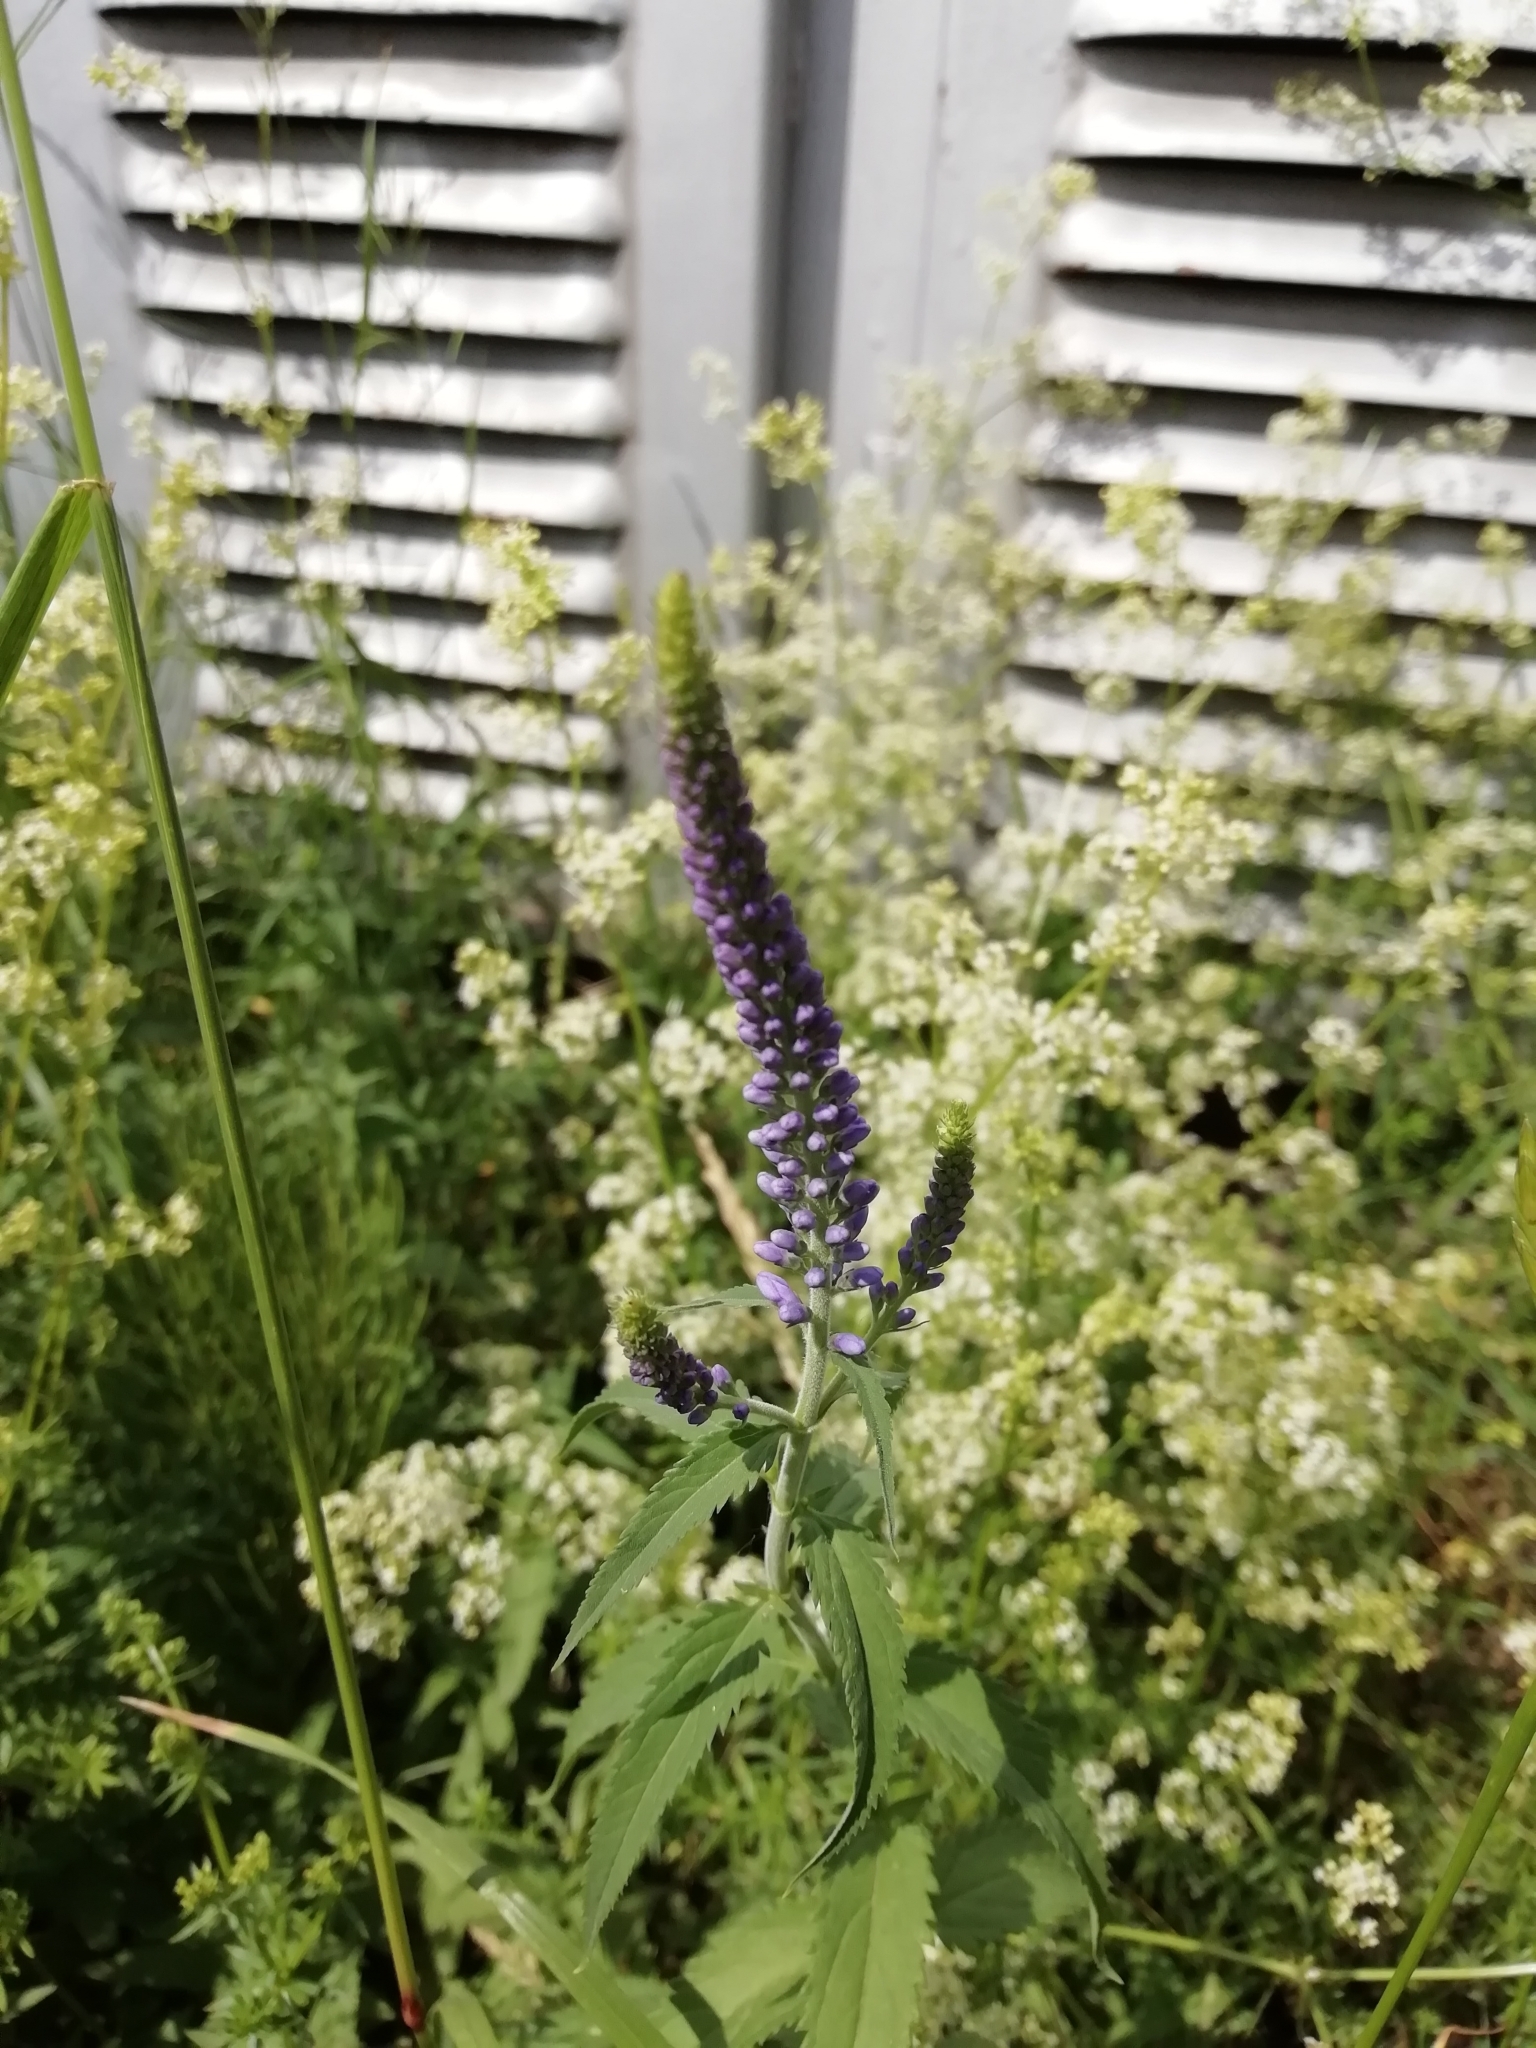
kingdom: Plantae
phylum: Tracheophyta
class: Magnoliopsida
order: Lamiales
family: Plantaginaceae
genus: Veronica
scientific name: Veronica longifolia
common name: Garden speedwell
